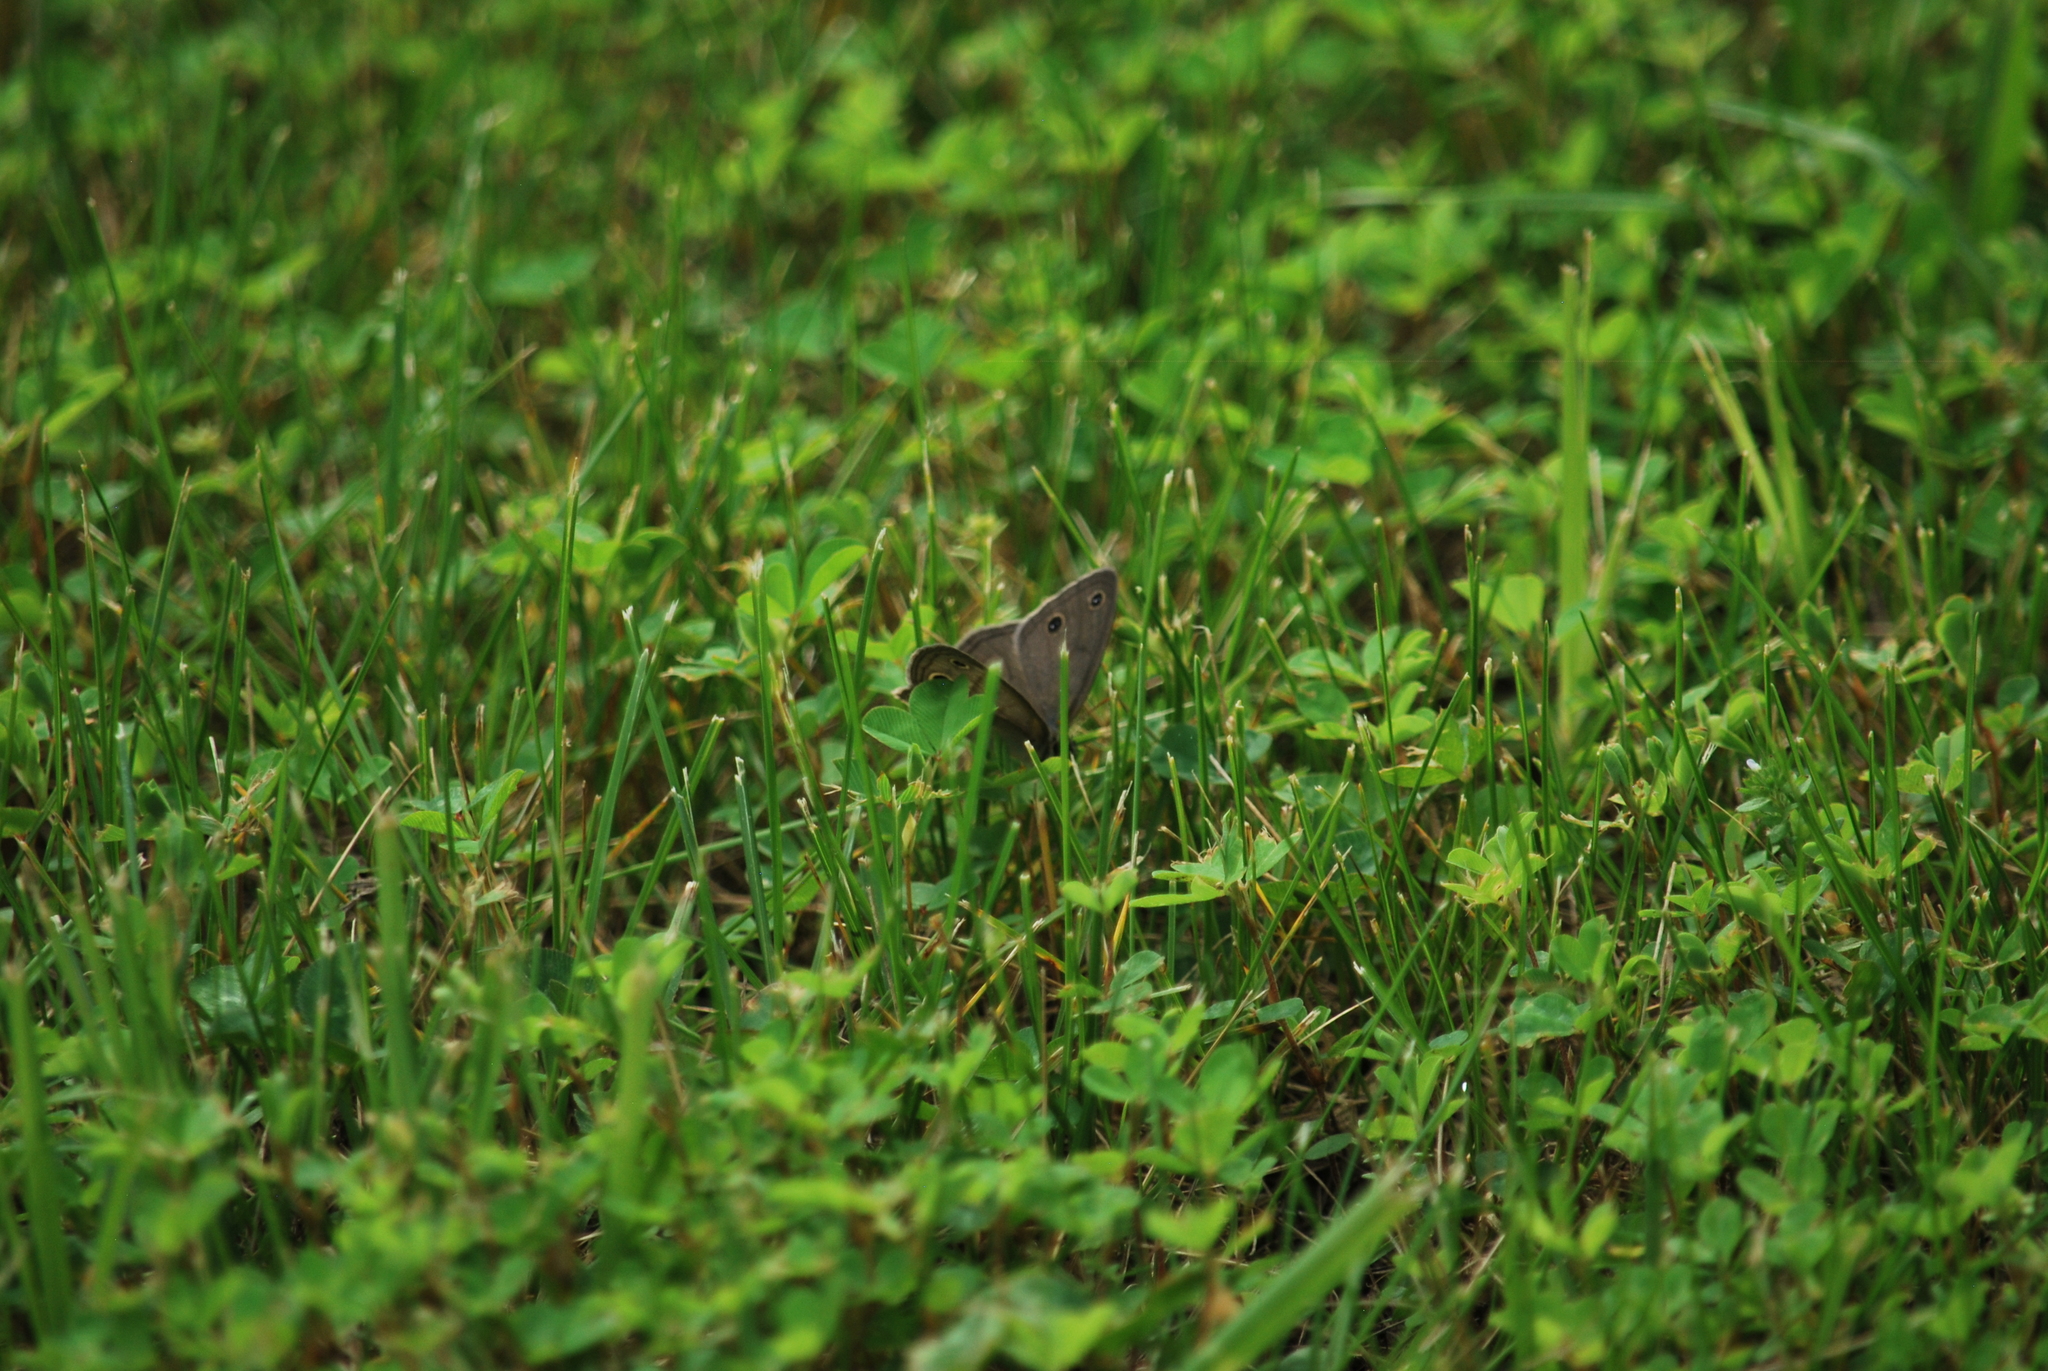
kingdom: Animalia
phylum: Arthropoda
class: Insecta
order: Lepidoptera
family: Nymphalidae
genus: Euptychia
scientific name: Euptychia cymela
